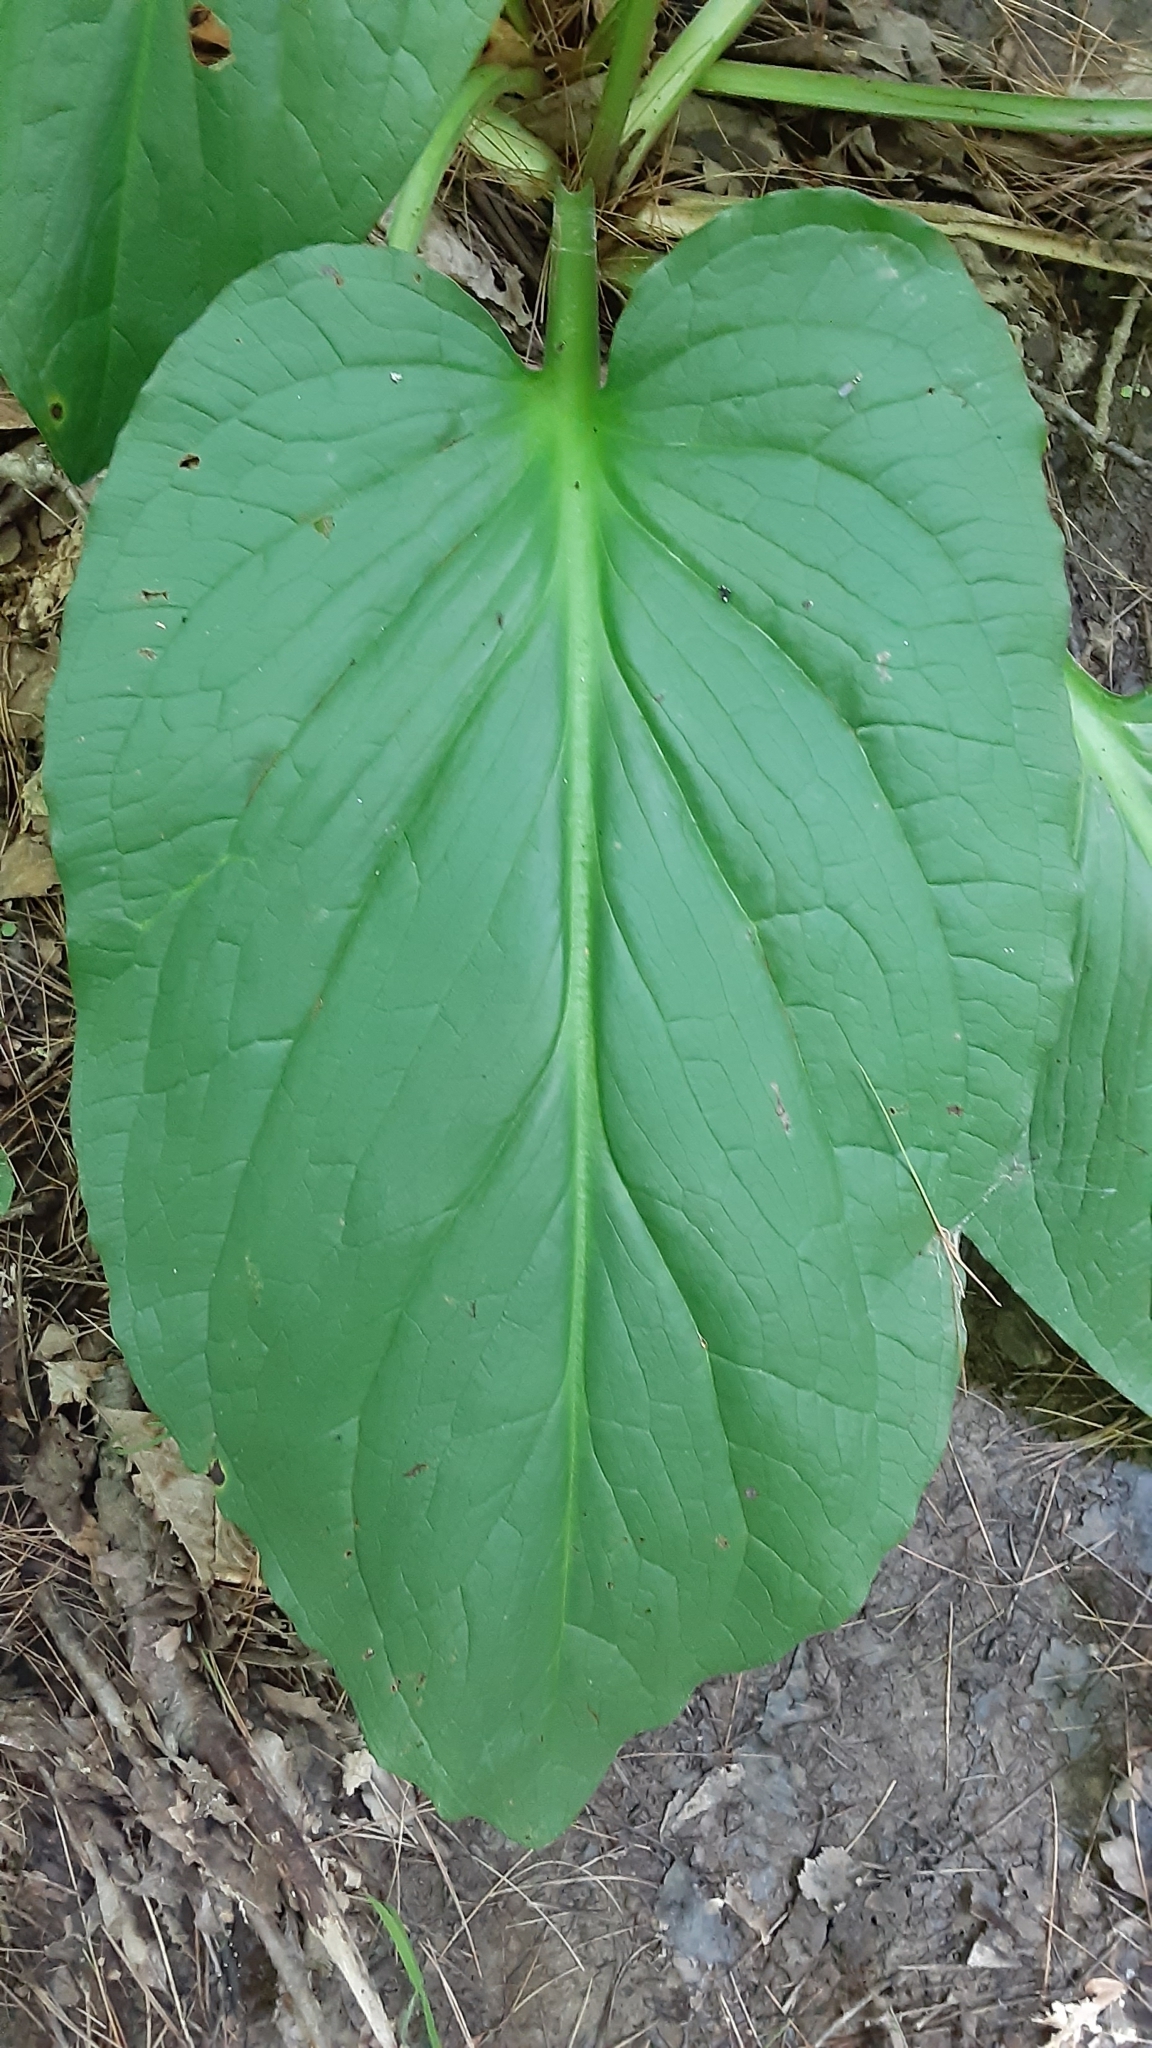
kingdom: Plantae
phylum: Tracheophyta
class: Liliopsida
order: Alismatales
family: Araceae
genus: Symplocarpus
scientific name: Symplocarpus foetidus
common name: Eastern skunk cabbage
